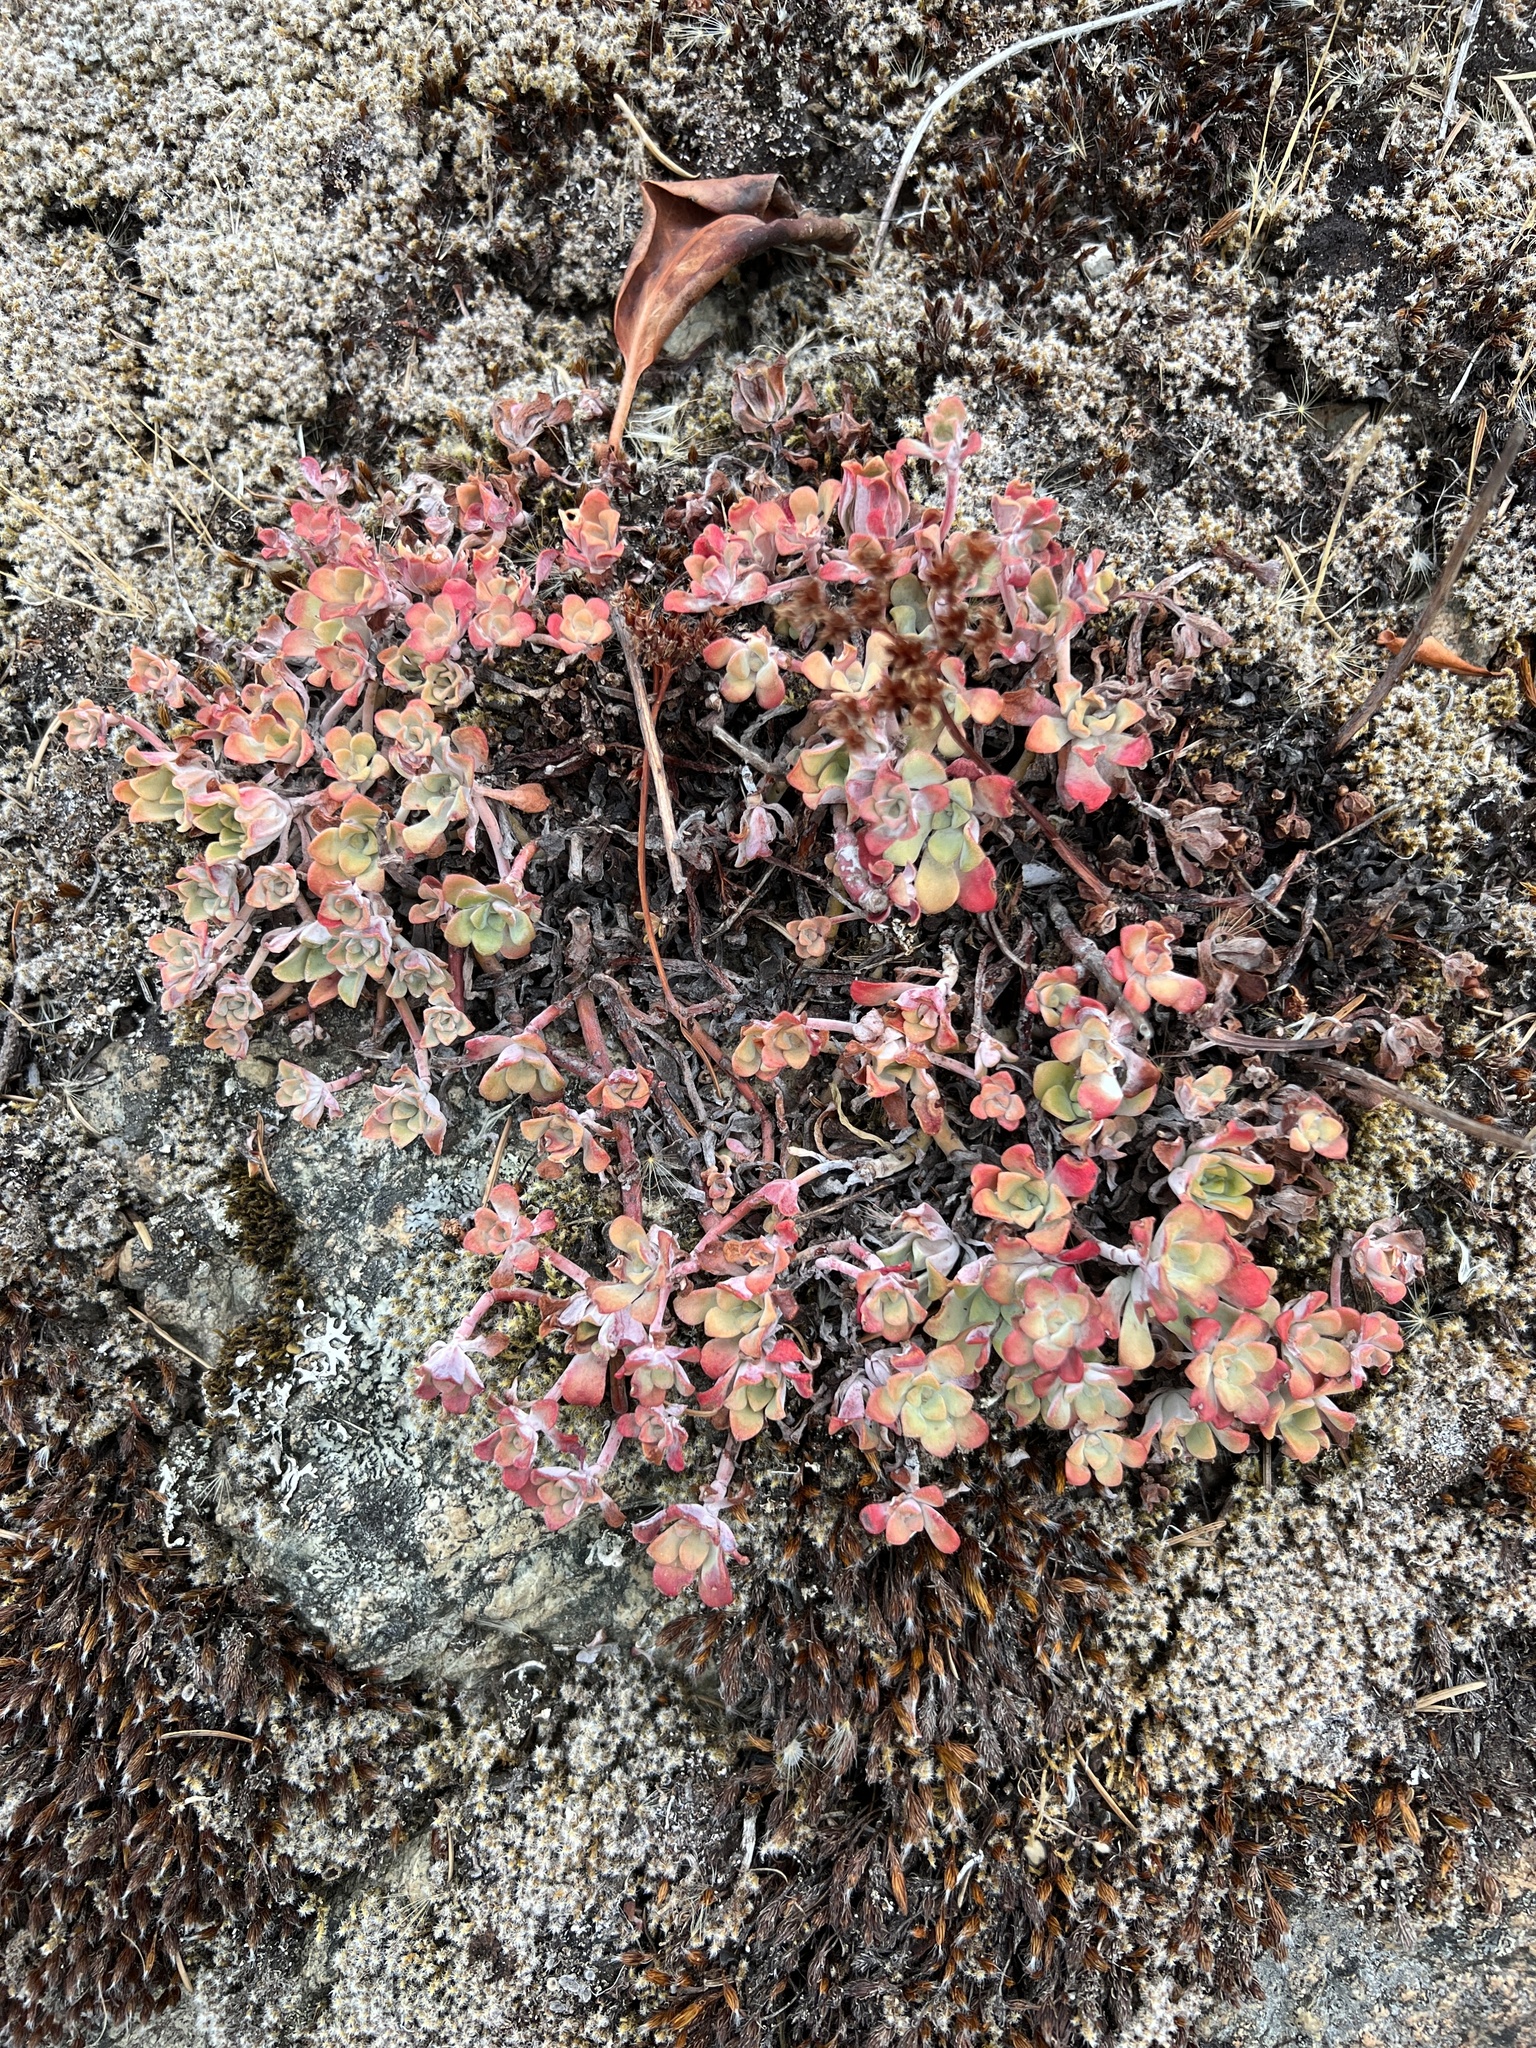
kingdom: Plantae
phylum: Tracheophyta
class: Magnoliopsida
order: Saxifragales
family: Crassulaceae
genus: Sedum
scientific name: Sedum spathulifolium
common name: Colorado stonecrop
